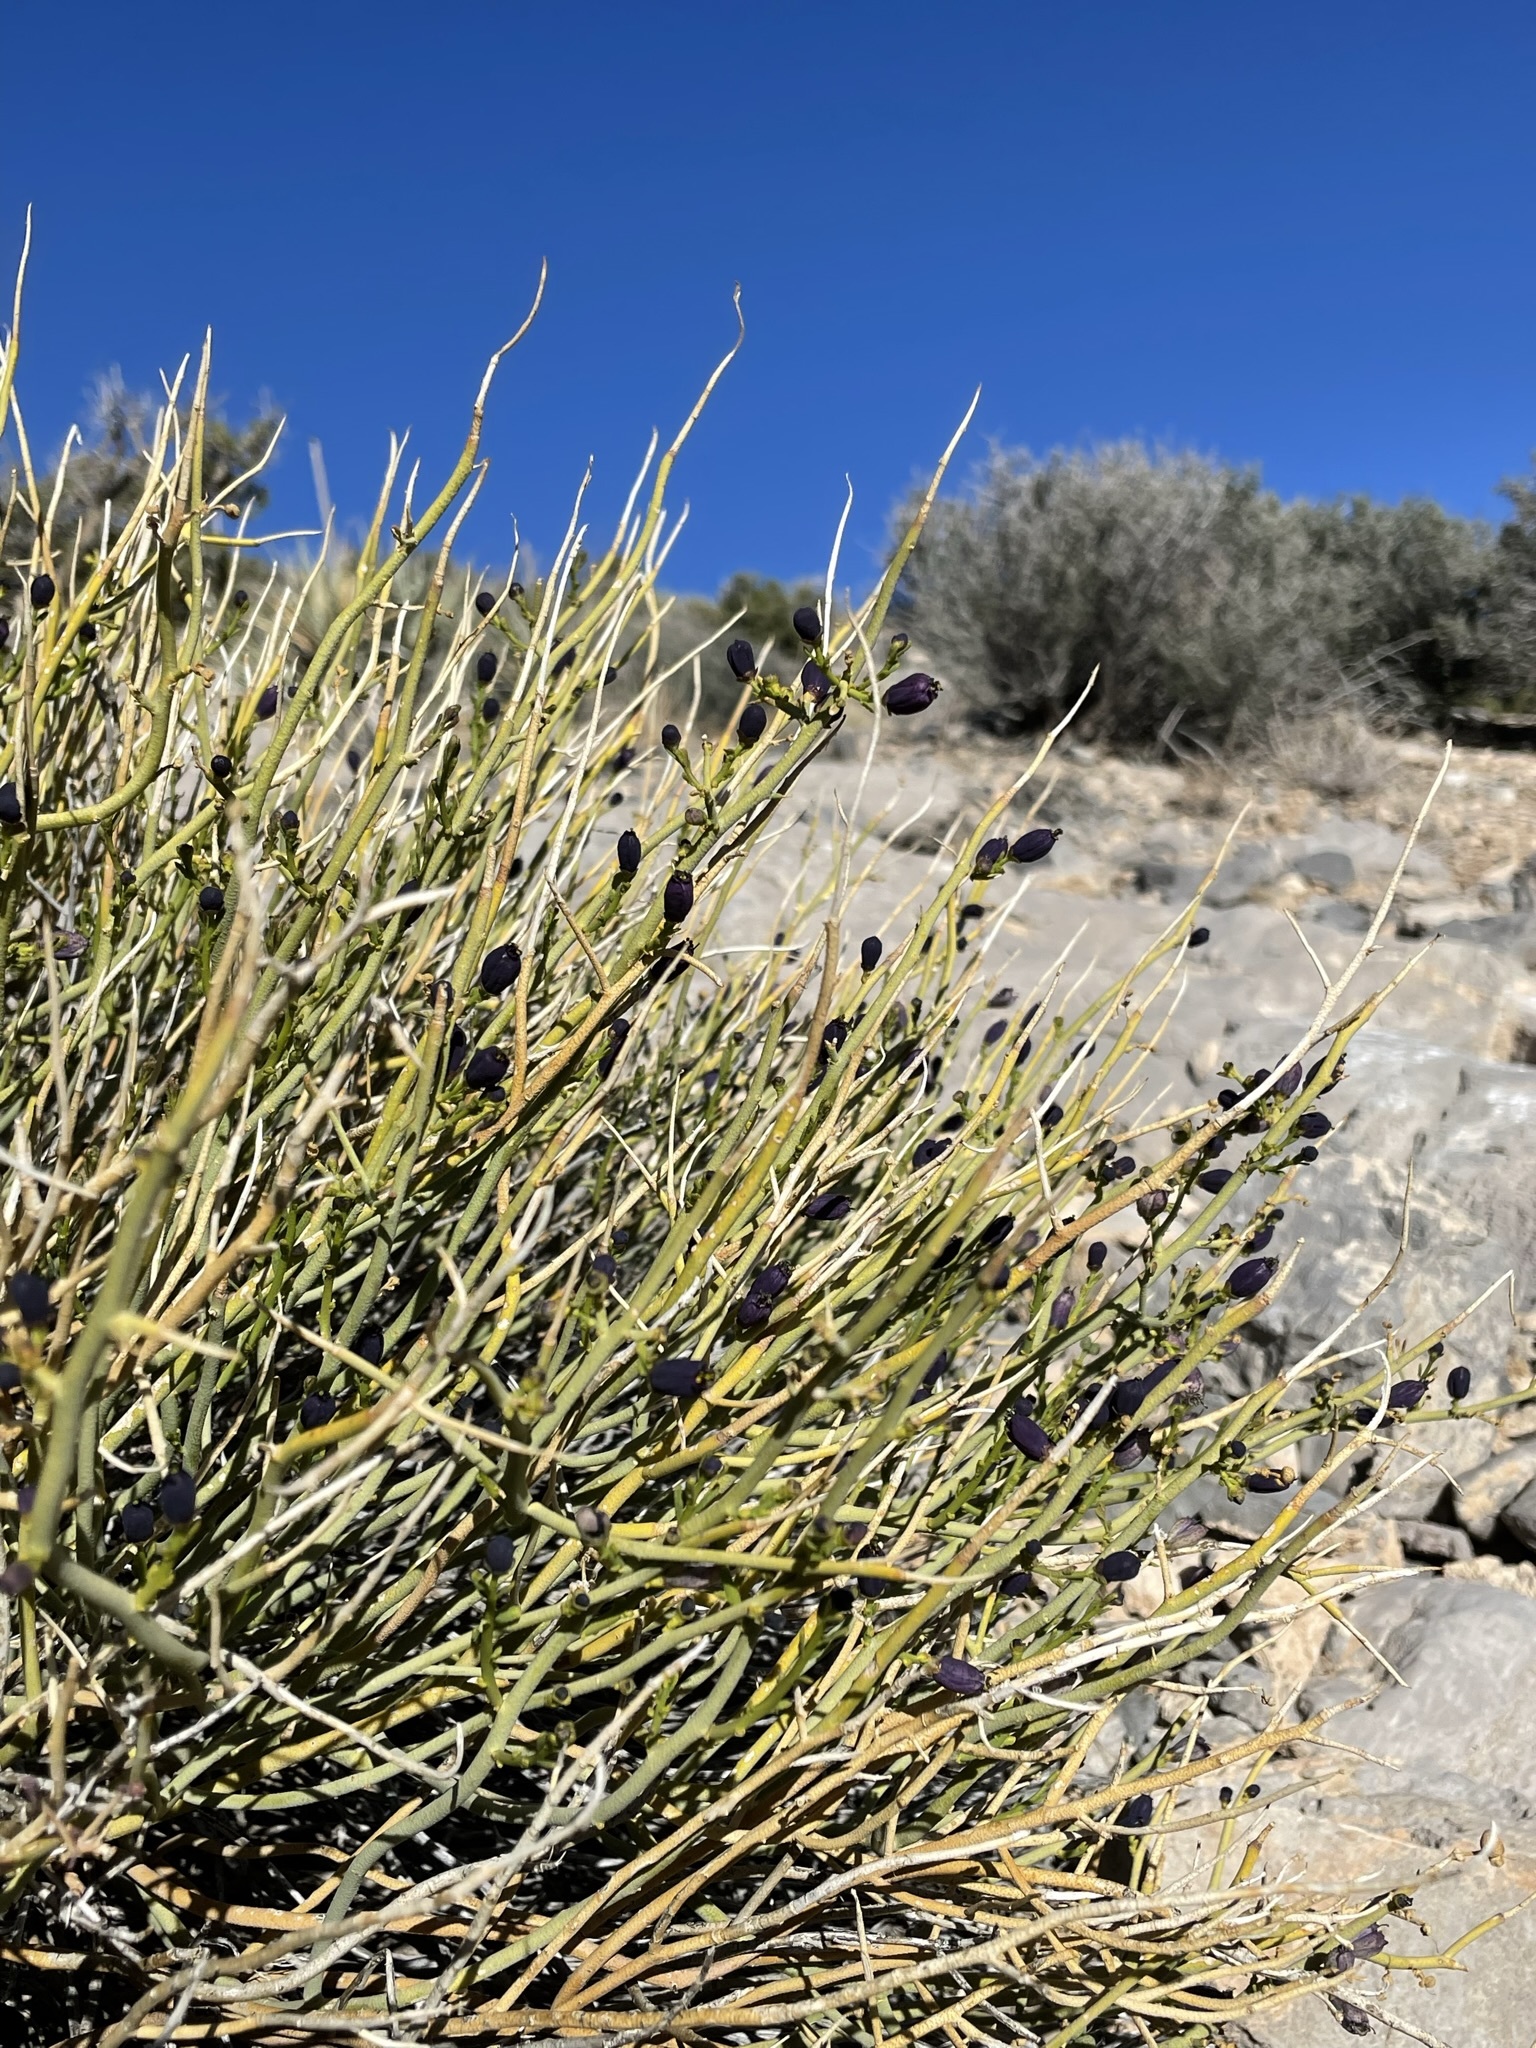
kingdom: Plantae
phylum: Tracheophyta
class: Magnoliopsida
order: Sapindales
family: Rutaceae
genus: Thamnosma
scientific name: Thamnosma montana
